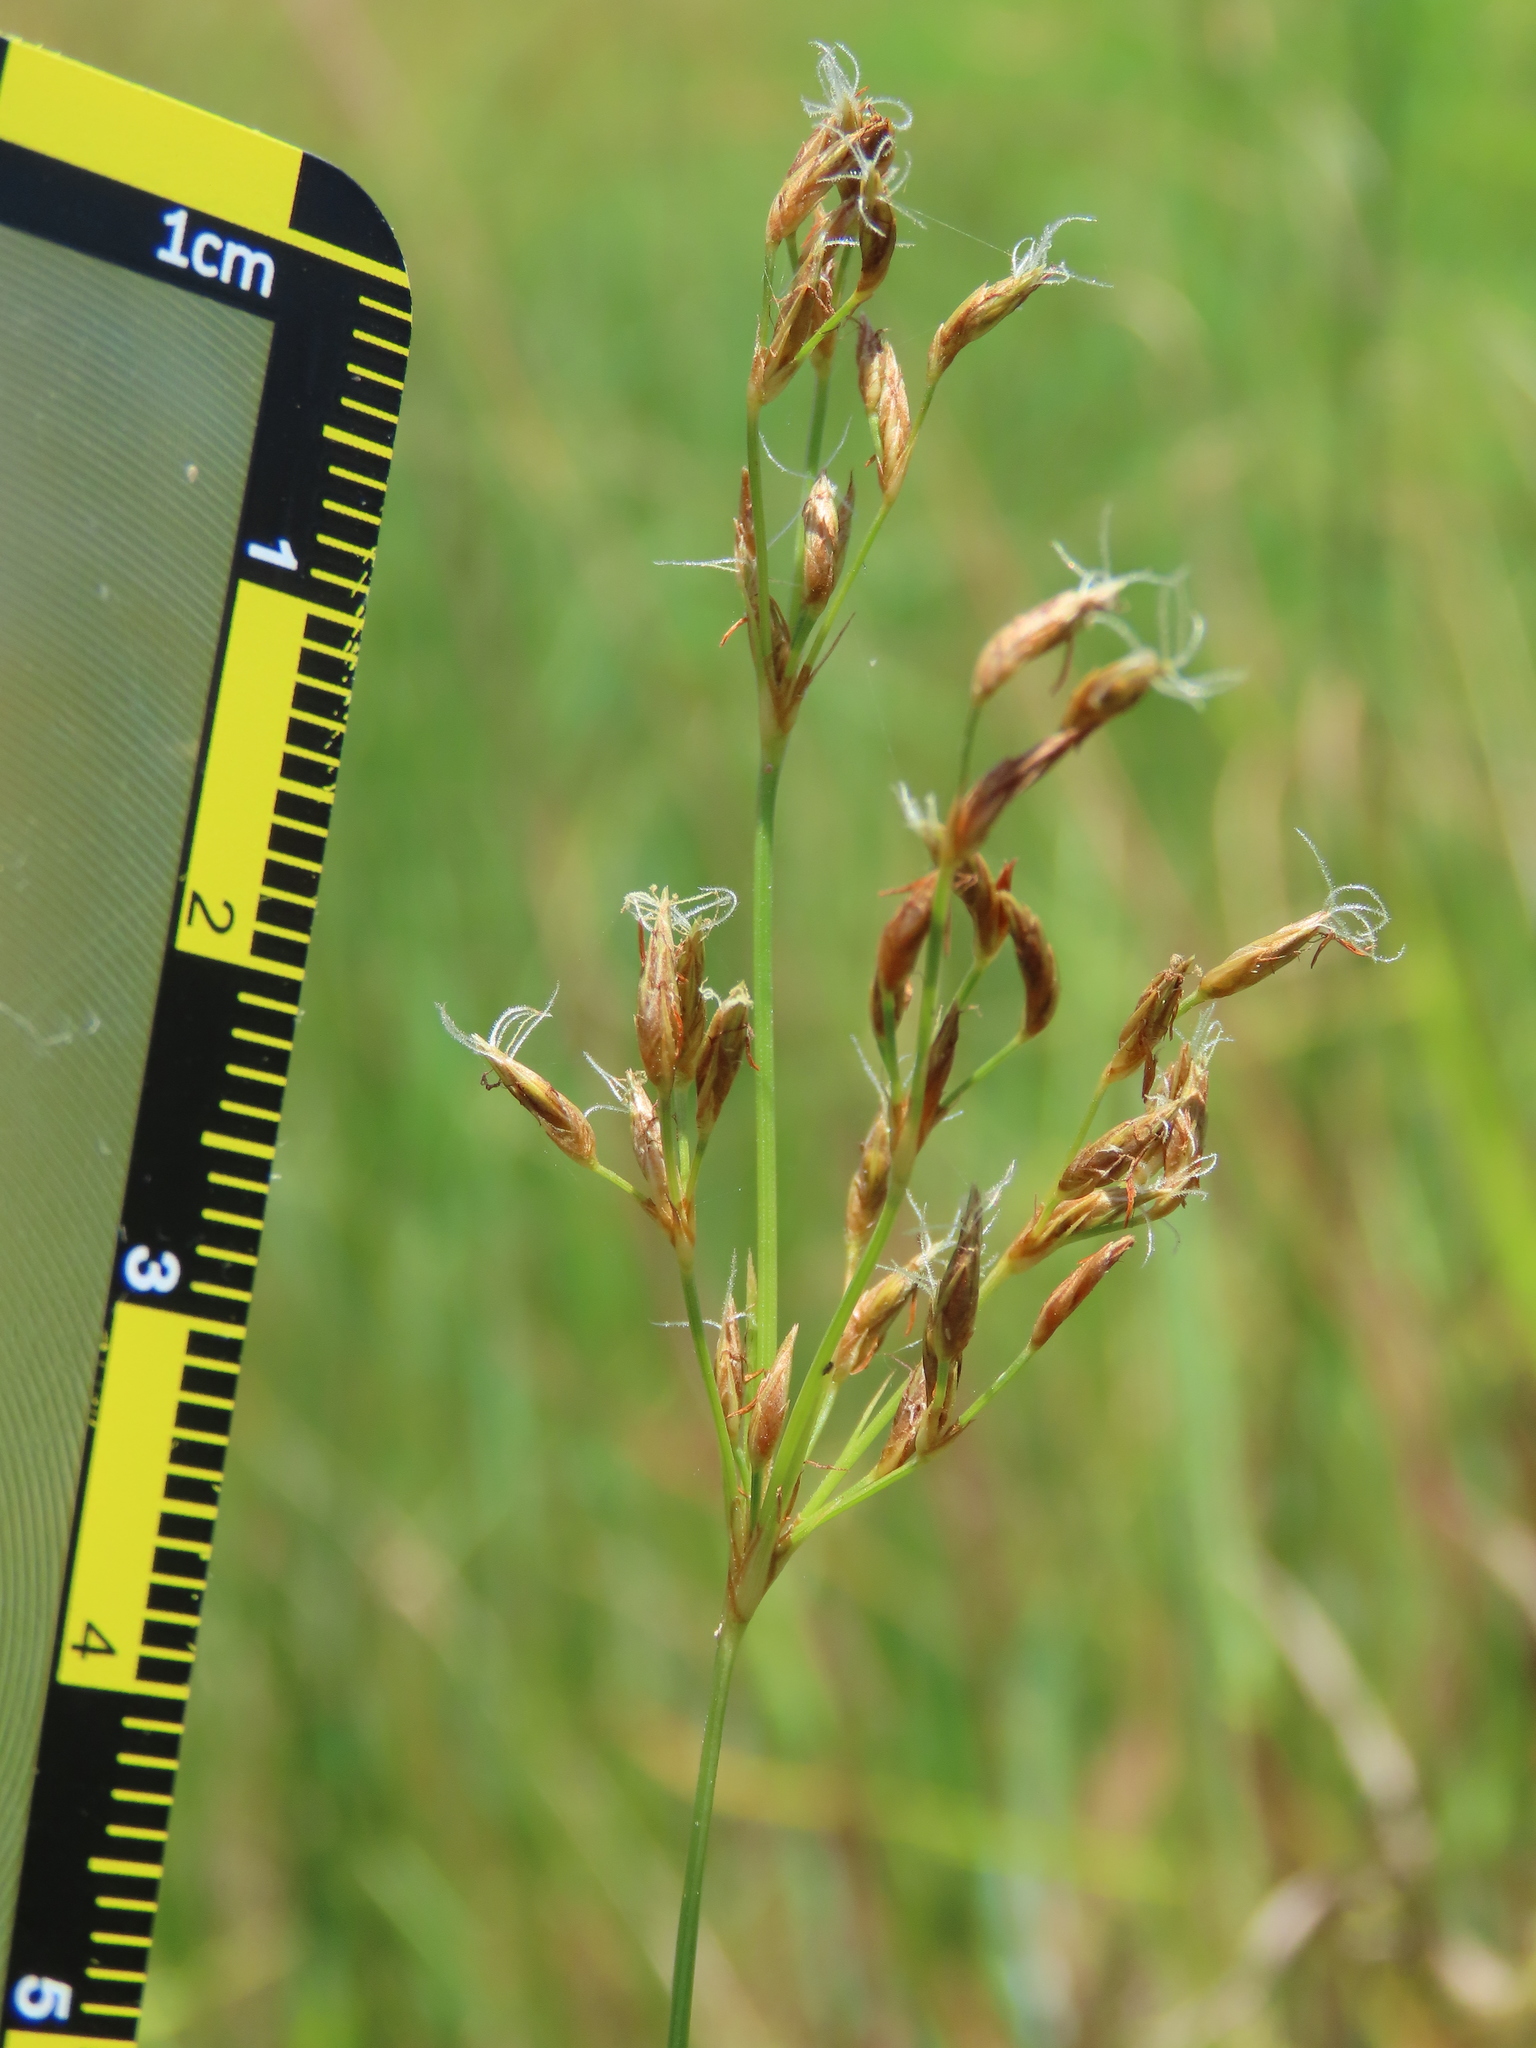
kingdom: Plantae
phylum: Tracheophyta
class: Liliopsida
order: Poales
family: Cyperaceae
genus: Fimbristylis
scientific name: Fimbristylis complanata
